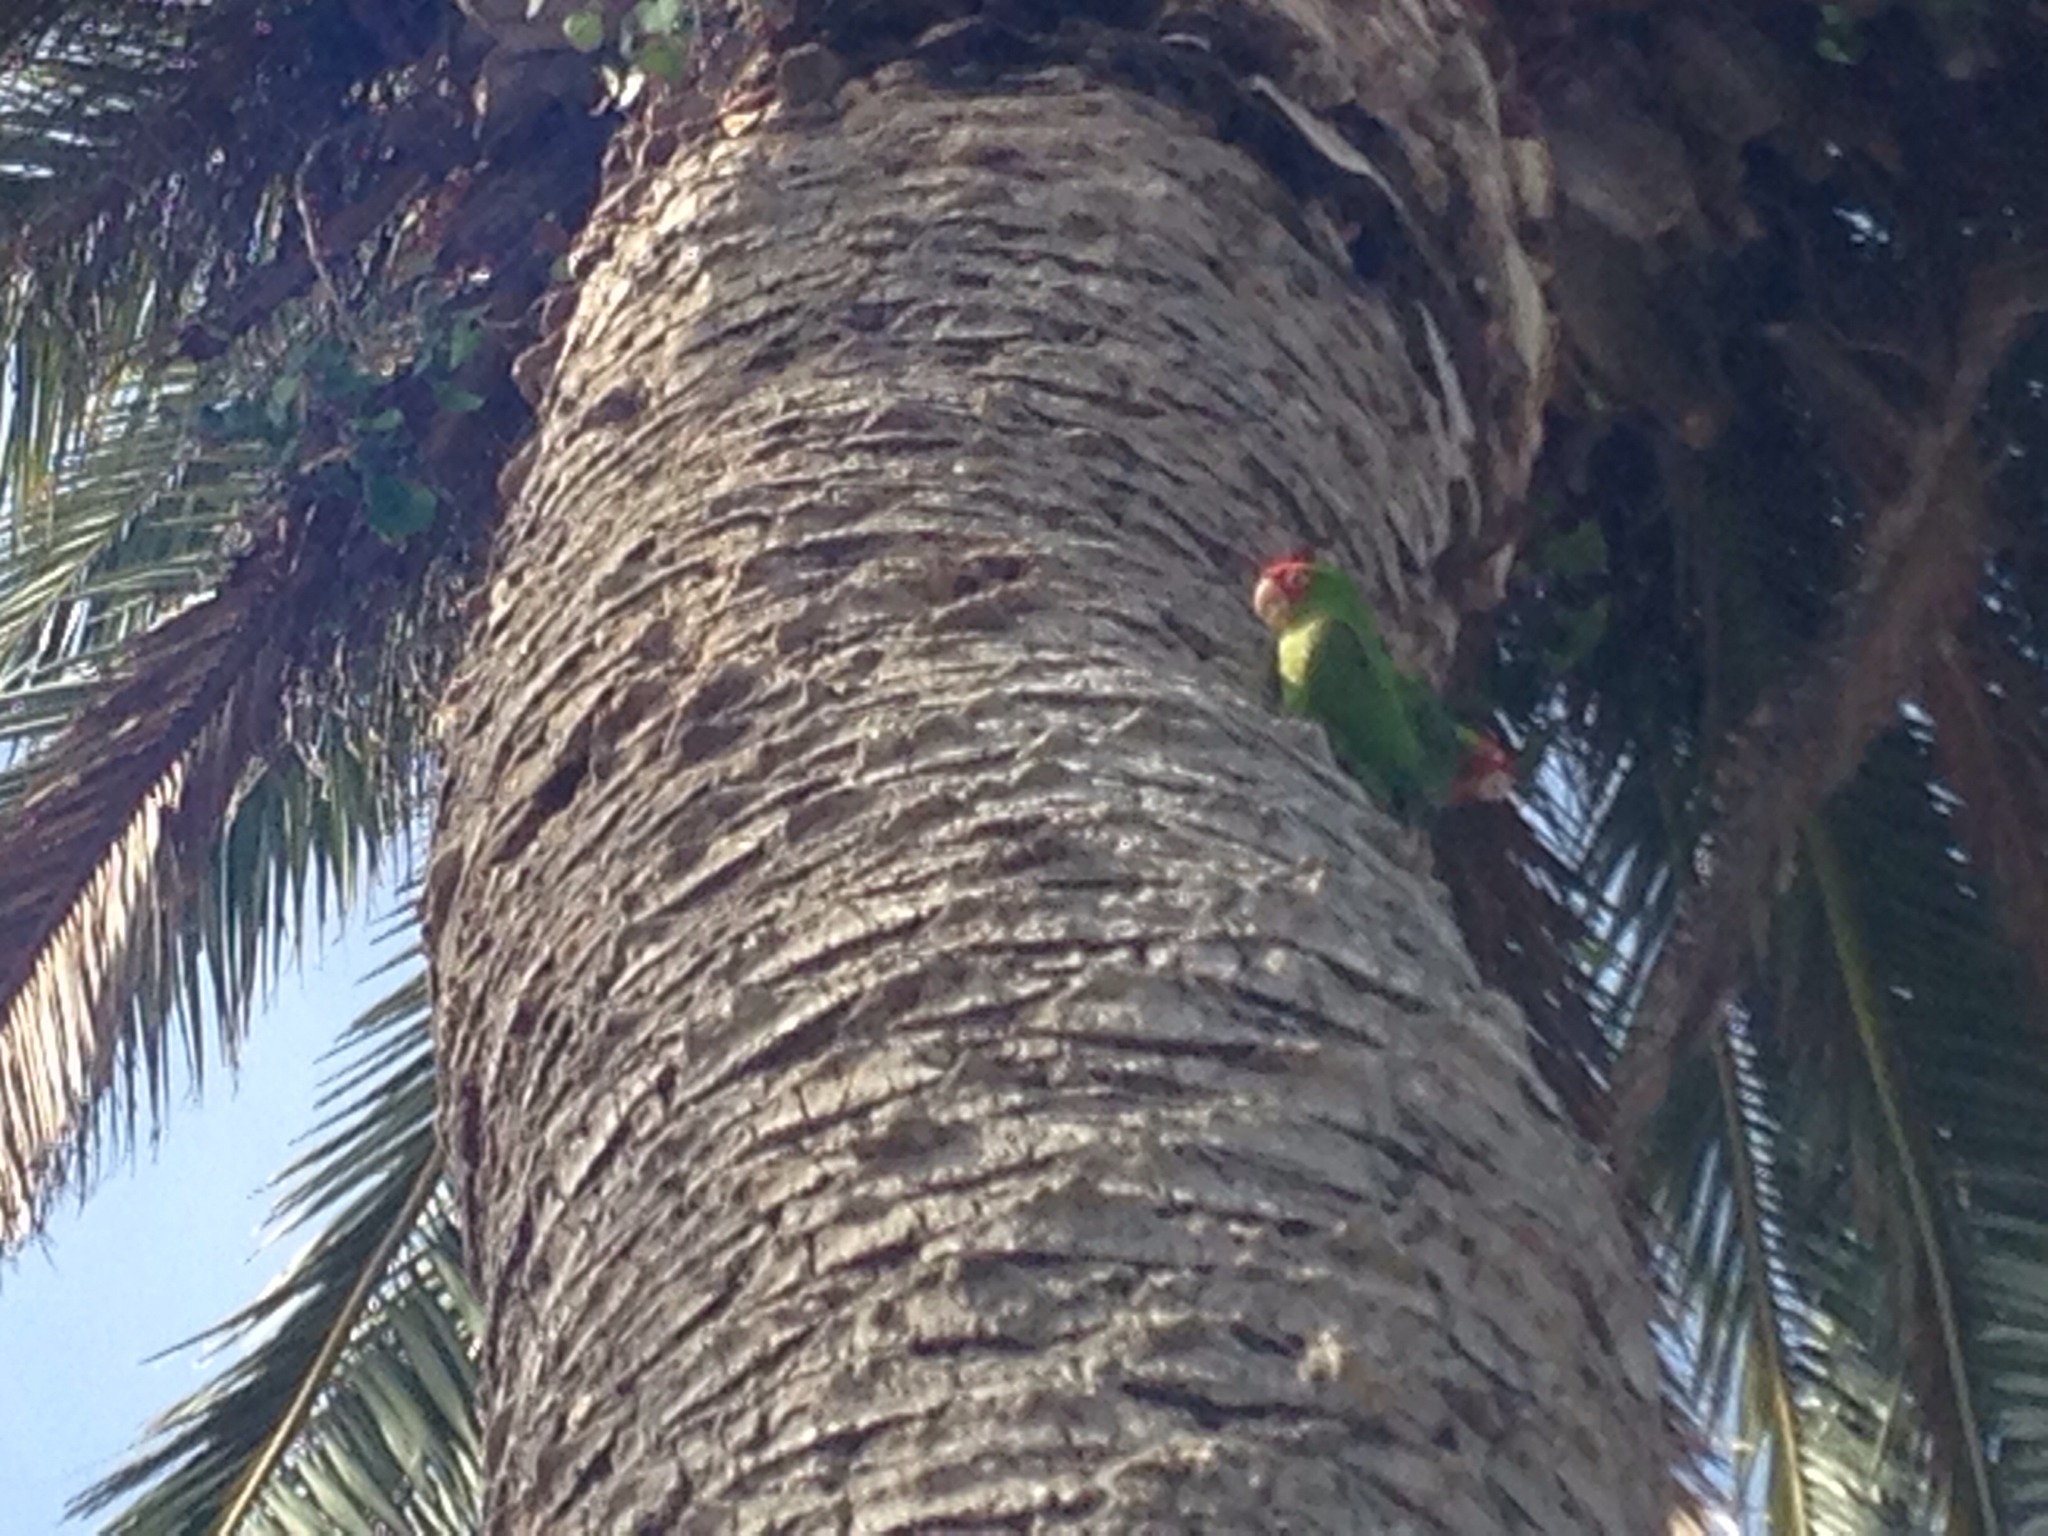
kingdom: Animalia
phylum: Chordata
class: Aves
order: Psittaciformes
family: Psittacidae
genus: Aratinga
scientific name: Aratinga erythrogenys
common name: Red-masked parakeet
